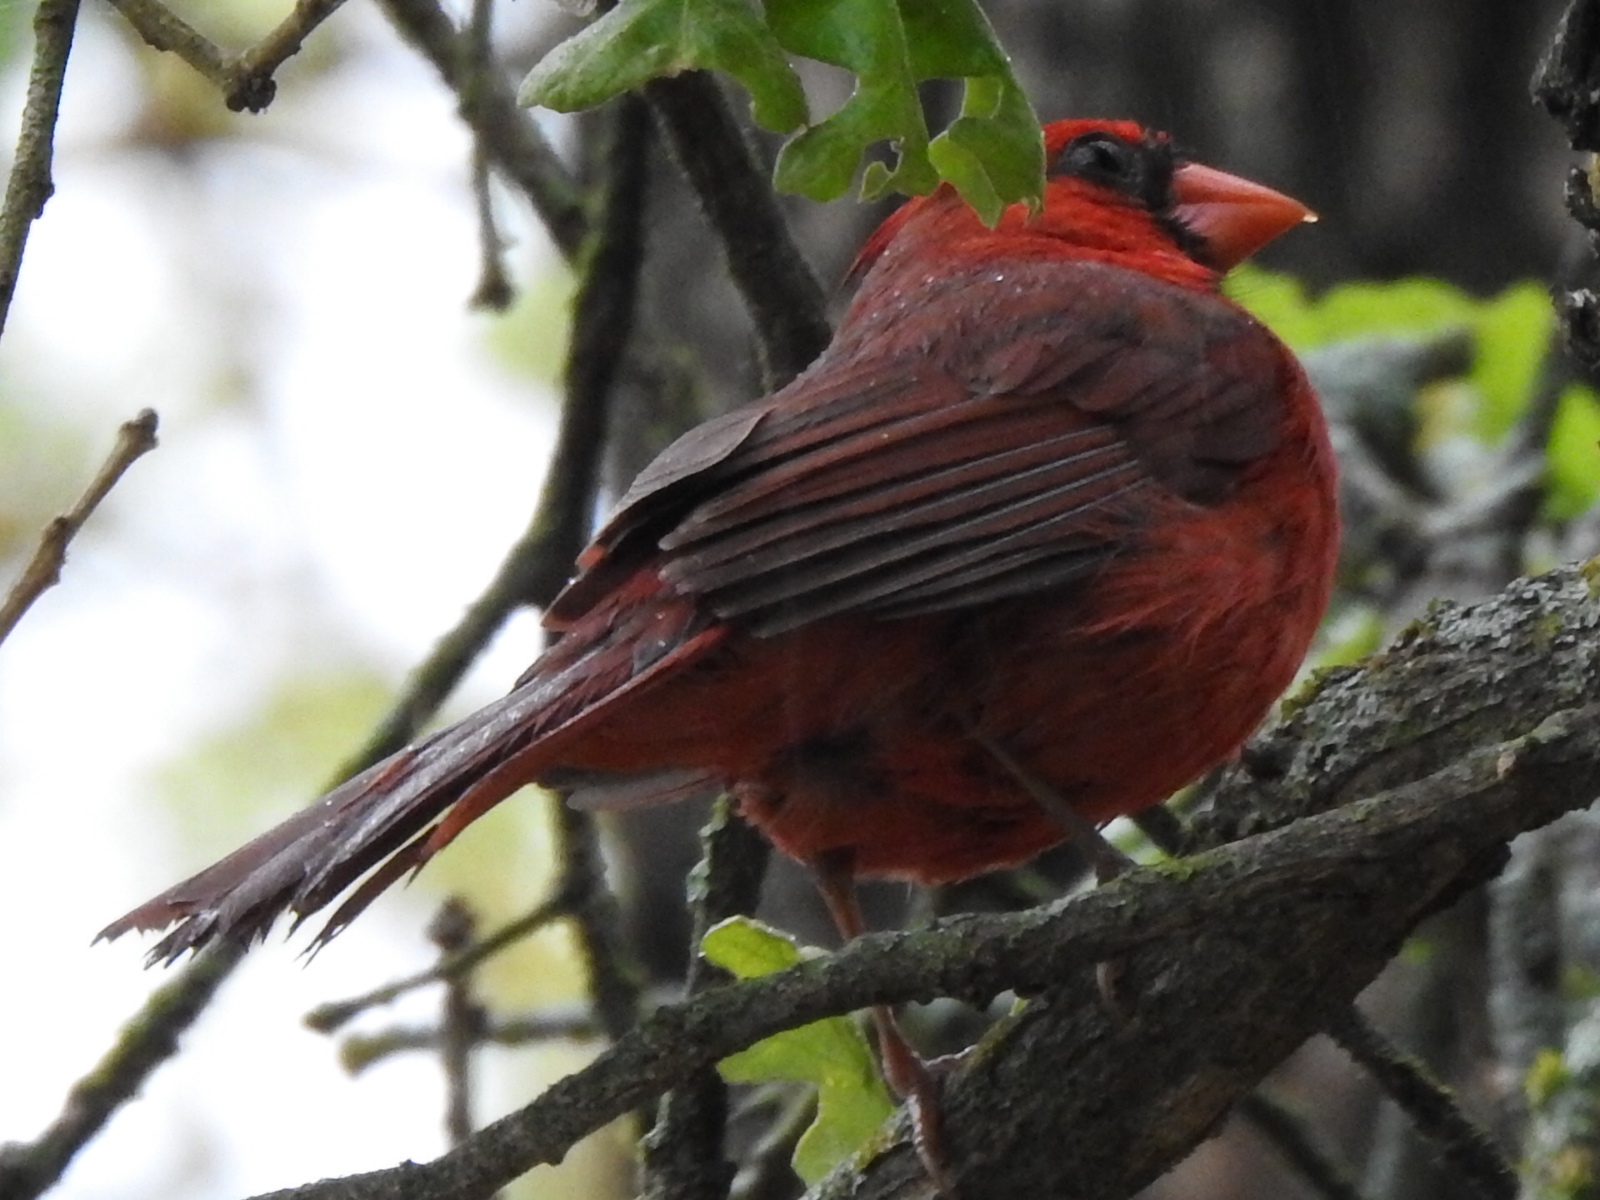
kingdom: Animalia
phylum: Chordata
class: Aves
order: Passeriformes
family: Cardinalidae
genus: Cardinalis
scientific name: Cardinalis cardinalis
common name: Northern cardinal
